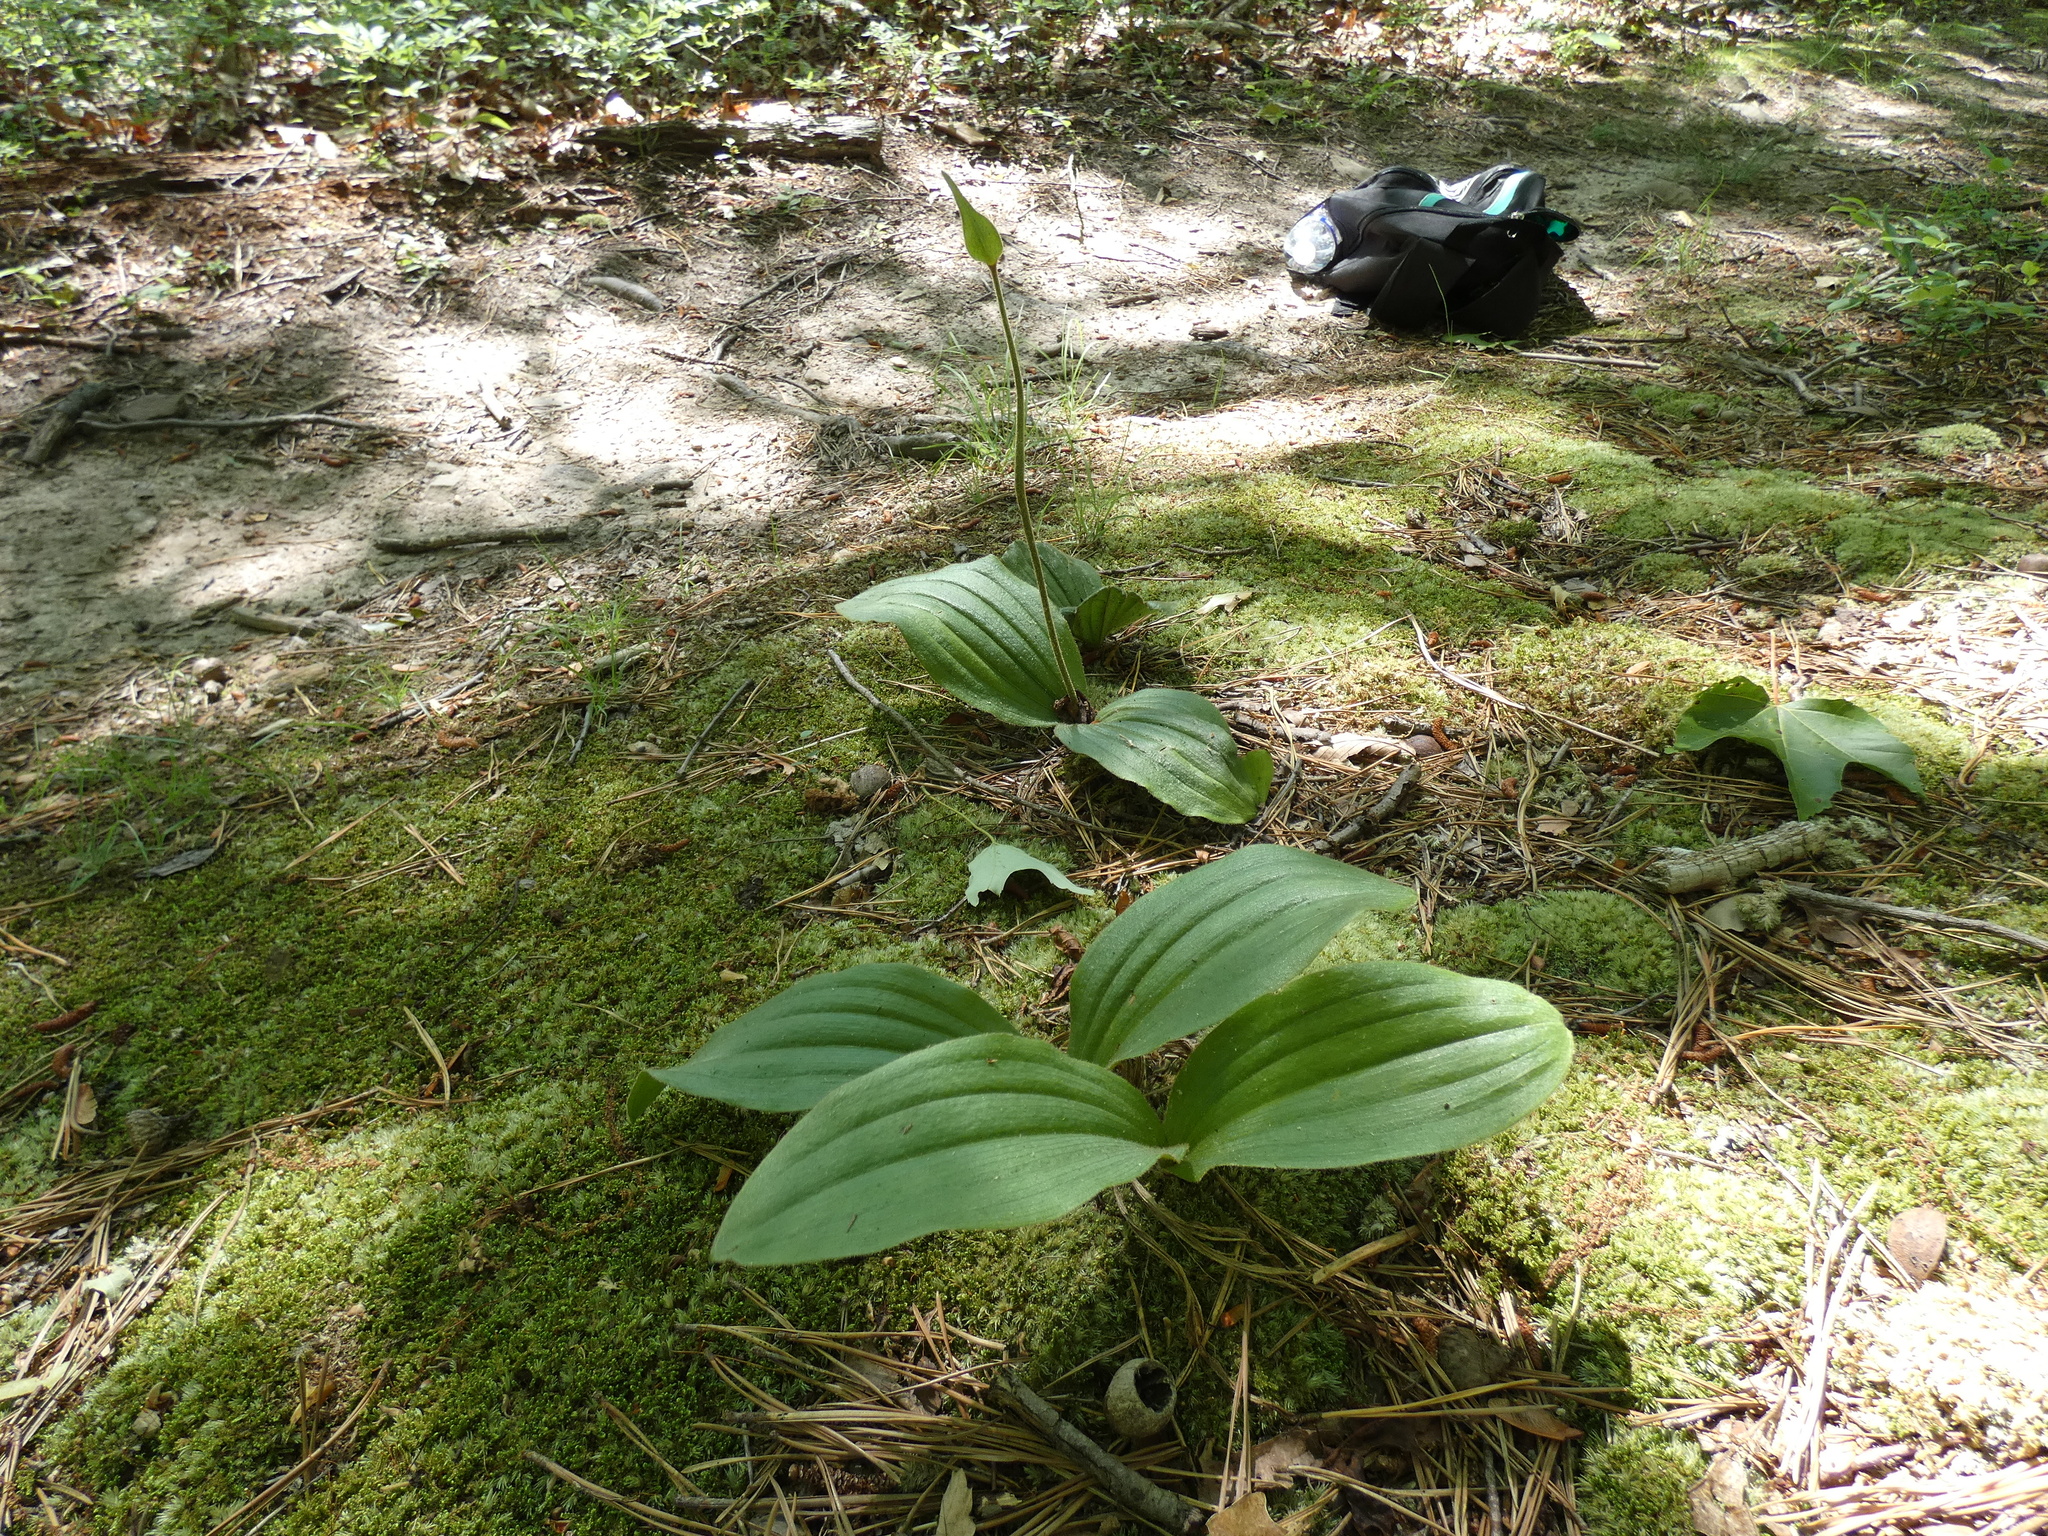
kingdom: Plantae
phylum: Tracheophyta
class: Liliopsida
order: Asparagales
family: Orchidaceae
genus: Cypripedium
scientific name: Cypripedium acaule
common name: Pink lady's-slipper
